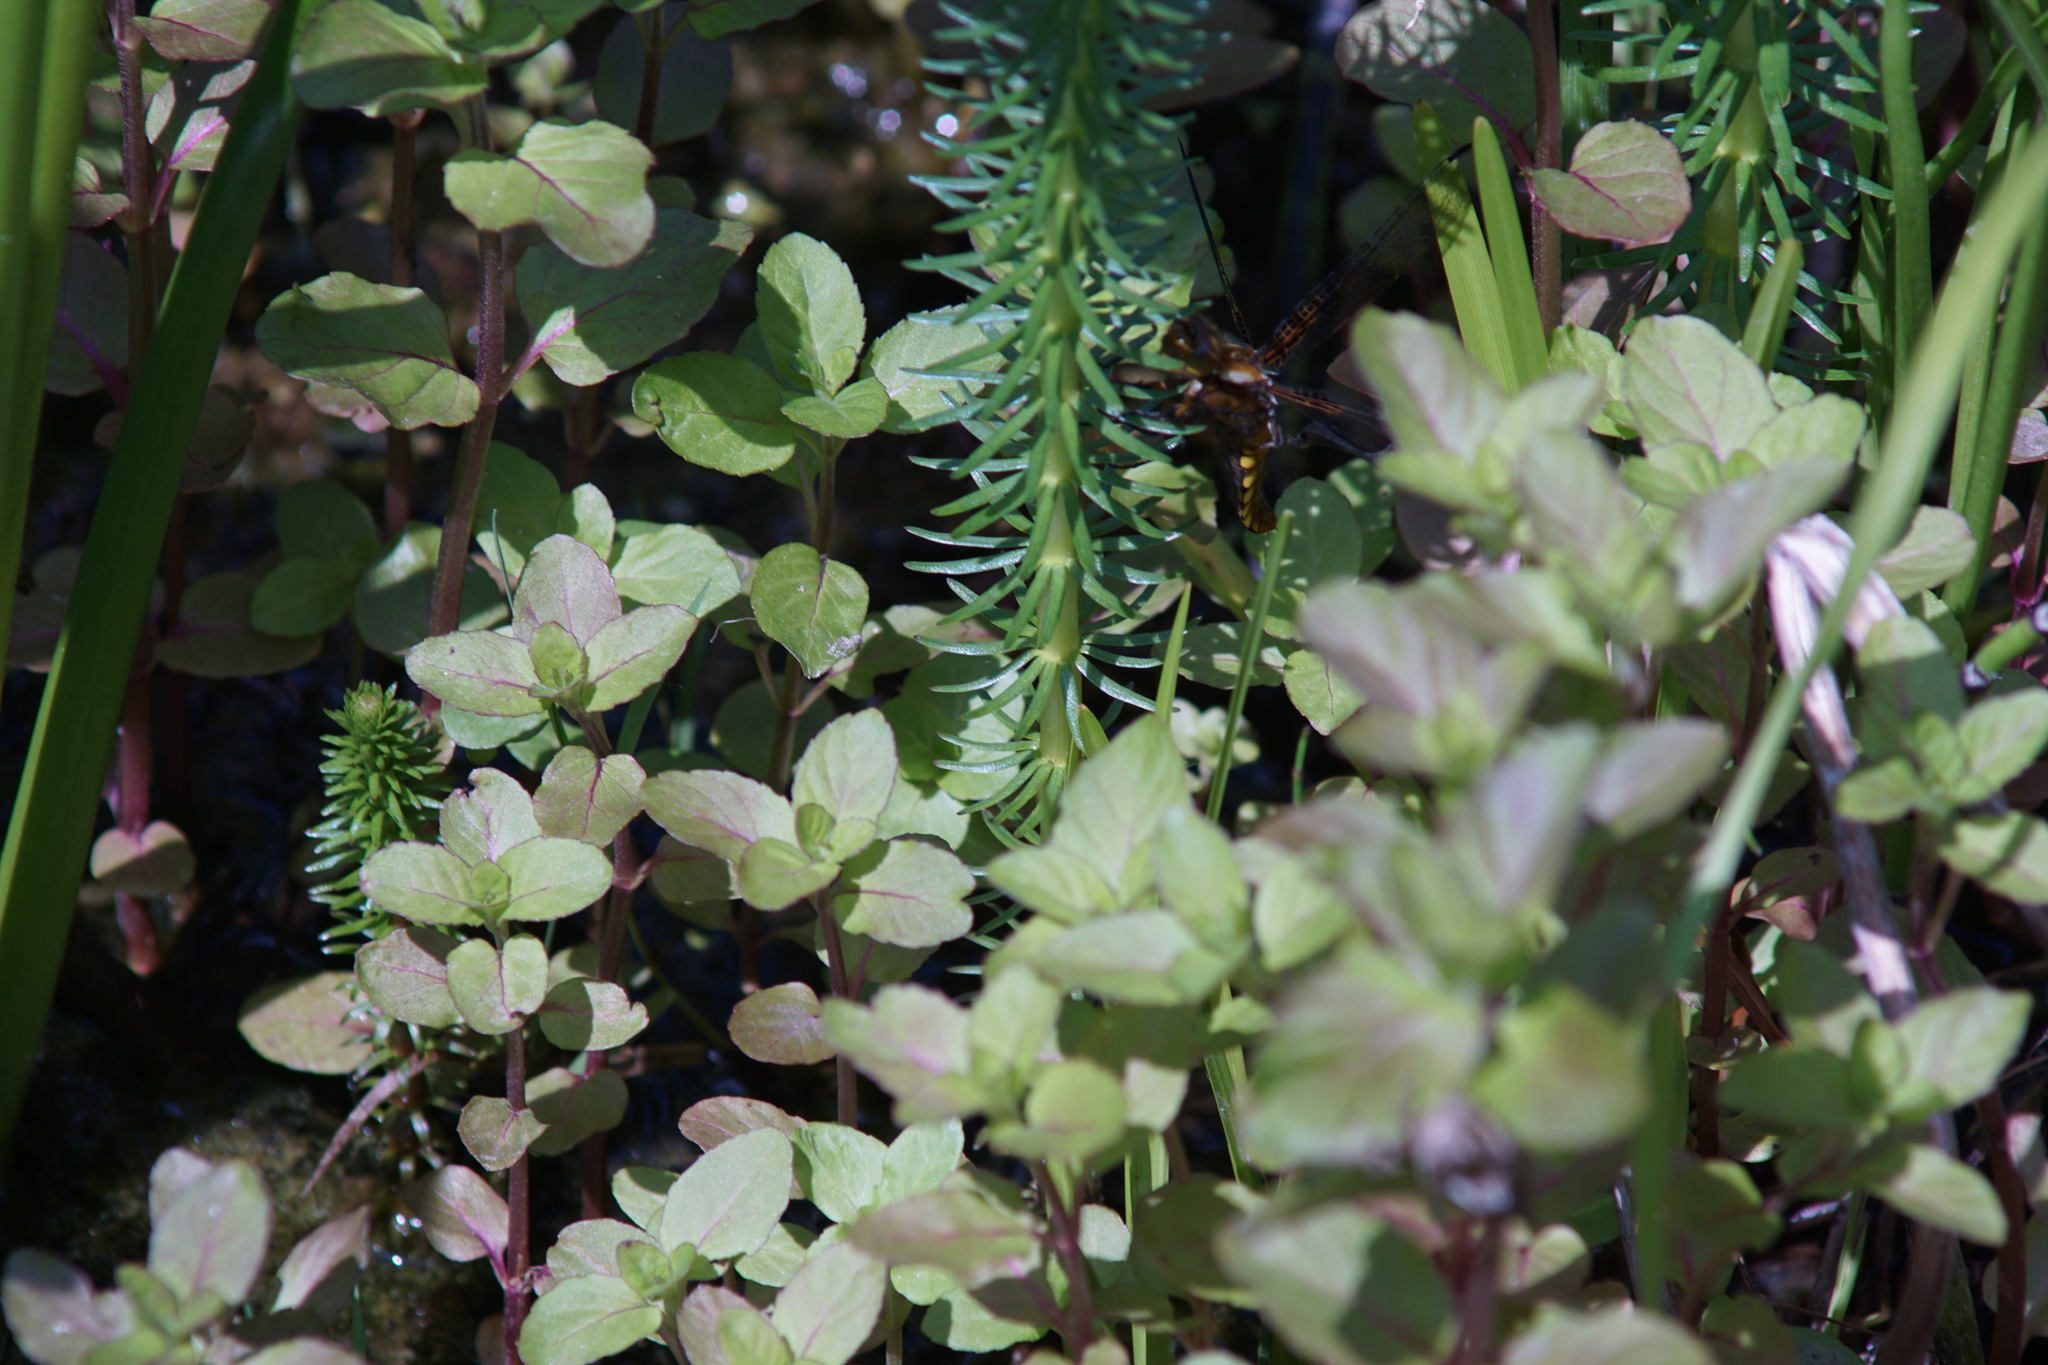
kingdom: Animalia
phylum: Arthropoda
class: Insecta
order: Odonata
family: Libellulidae
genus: Libellula
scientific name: Libellula depressa
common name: Broad-bodied chaser
